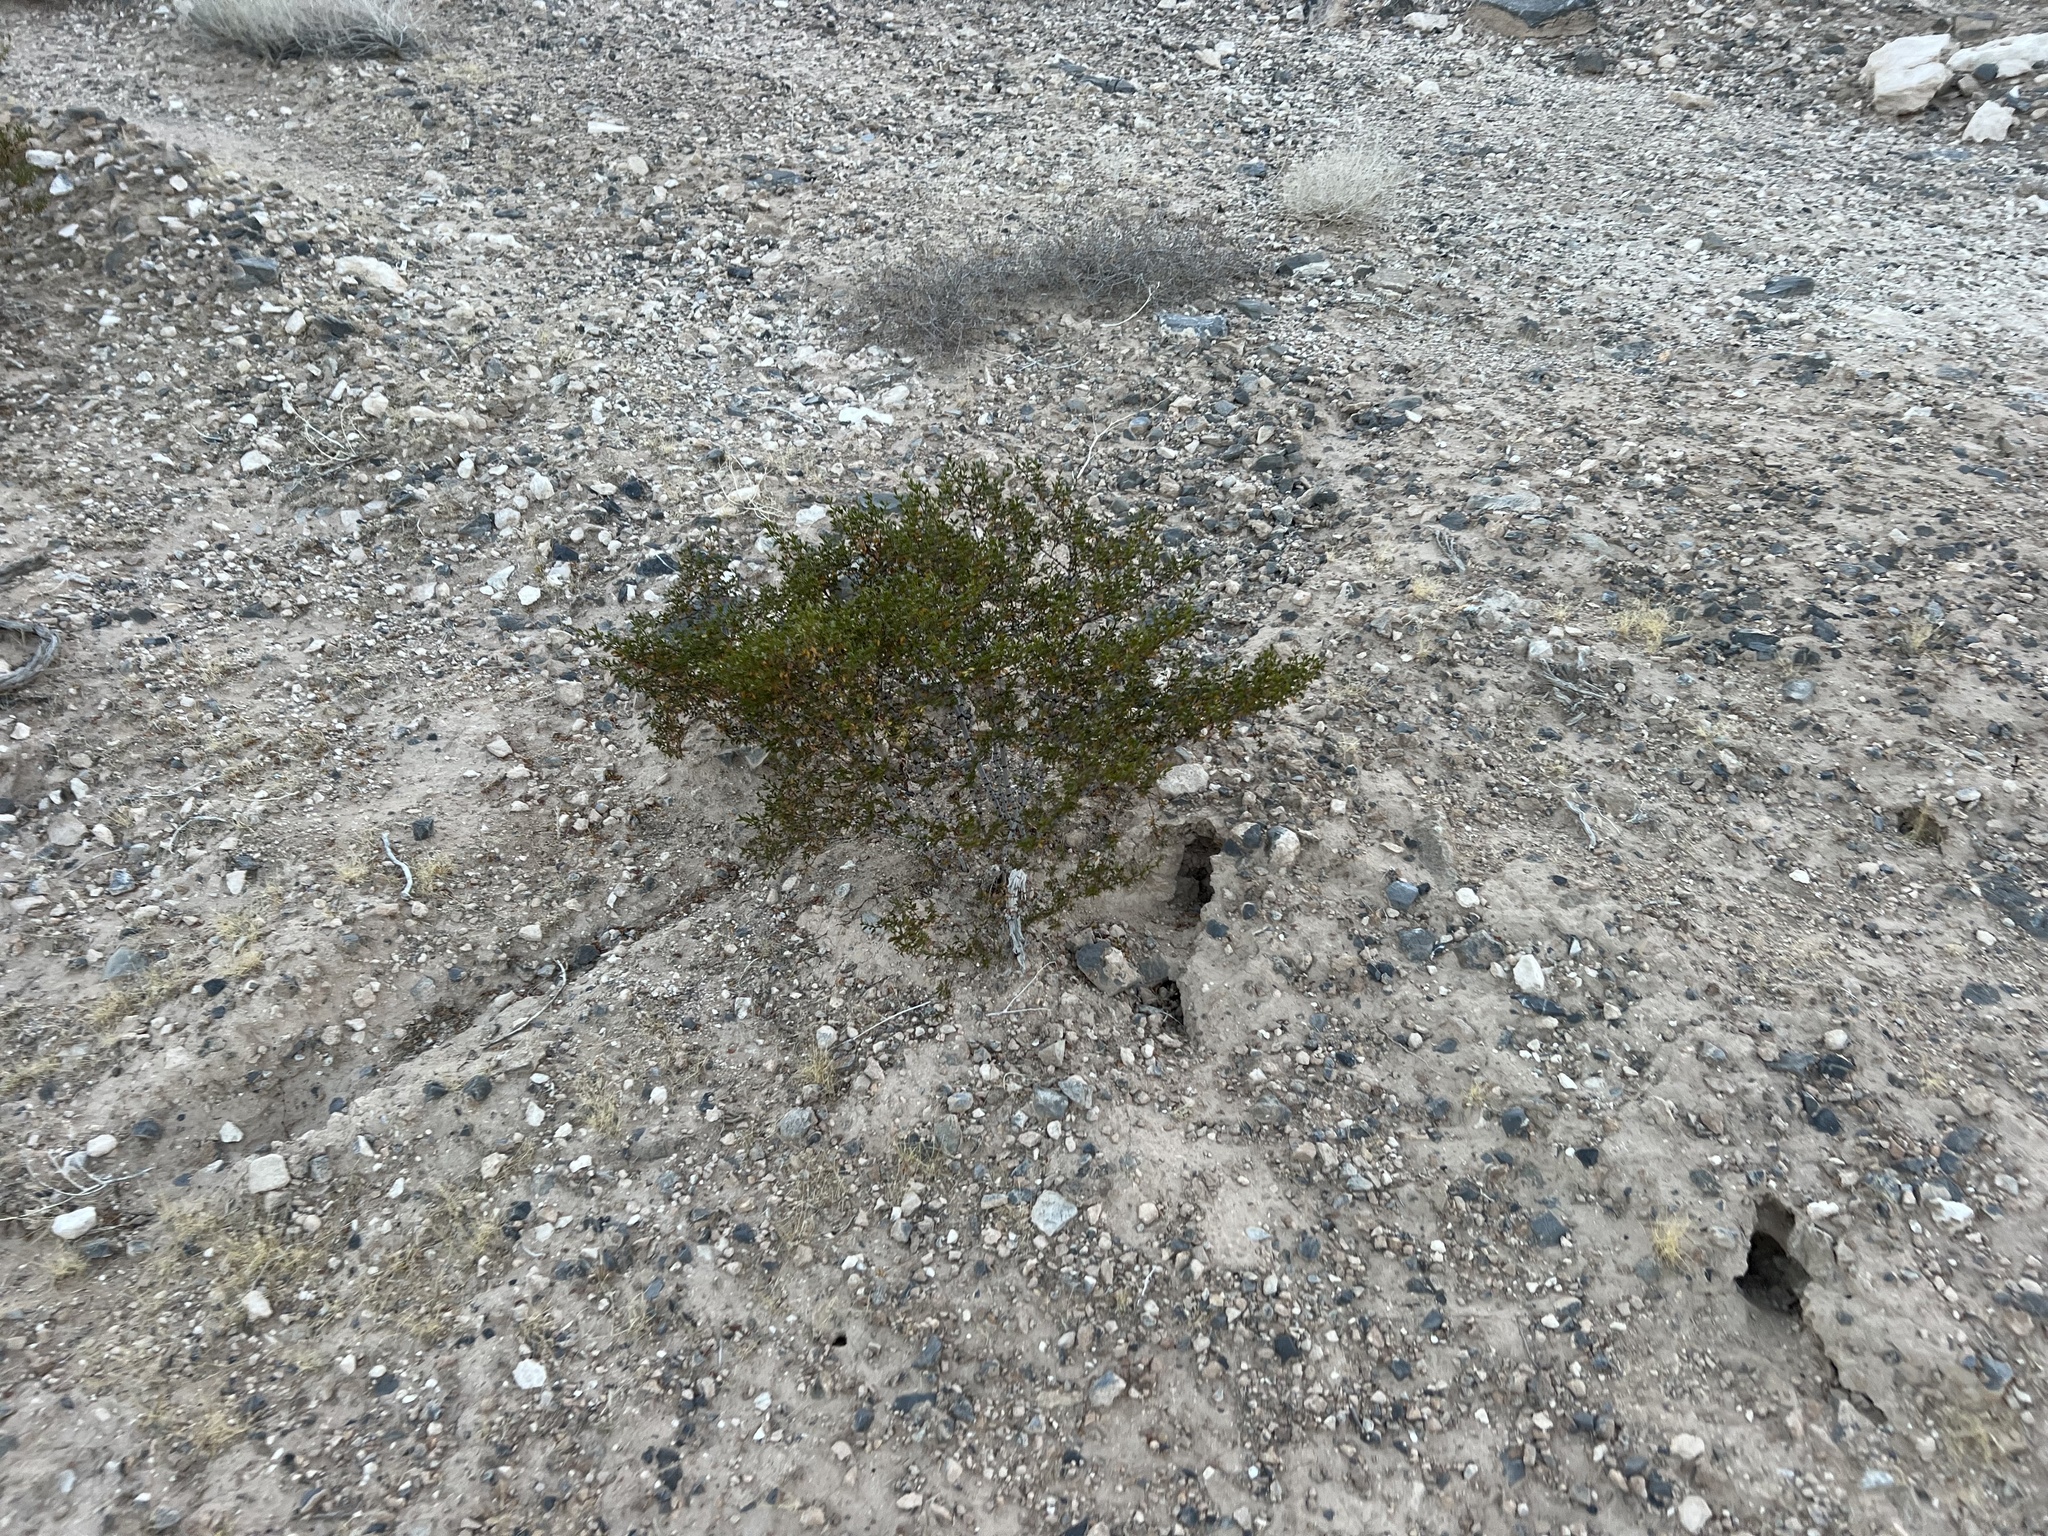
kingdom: Plantae
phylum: Tracheophyta
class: Magnoliopsida
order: Zygophyllales
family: Zygophyllaceae
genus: Larrea
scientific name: Larrea tridentata
